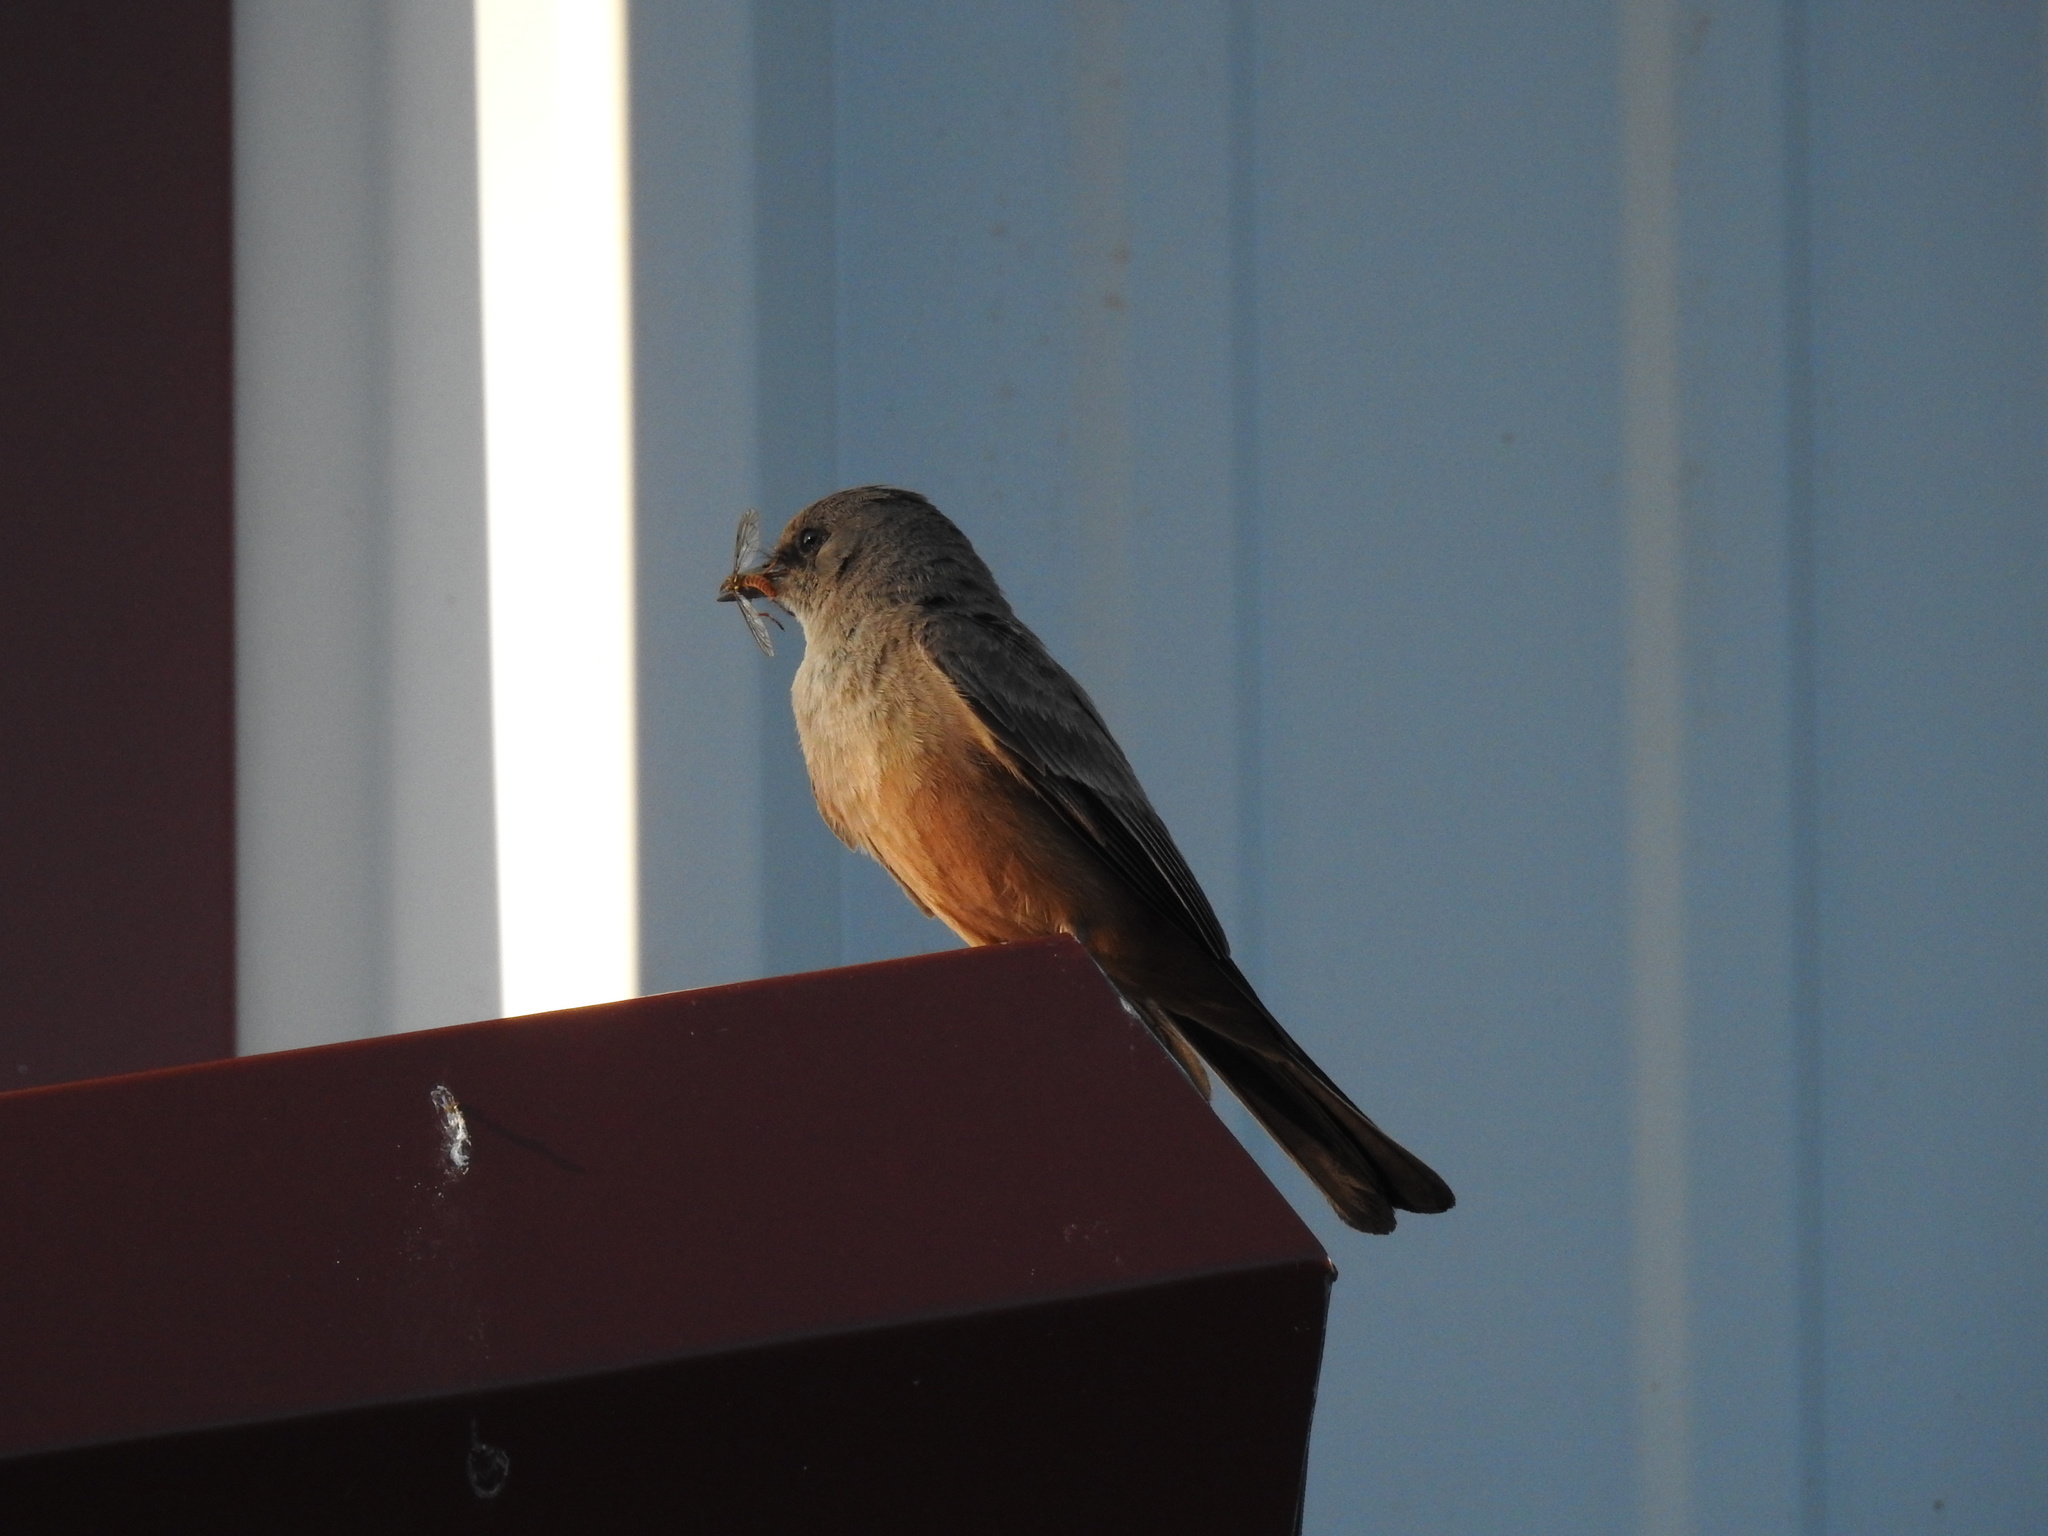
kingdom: Animalia
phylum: Chordata
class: Aves
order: Passeriformes
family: Tyrannidae
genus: Sayornis
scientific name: Sayornis saya
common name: Say's phoebe
